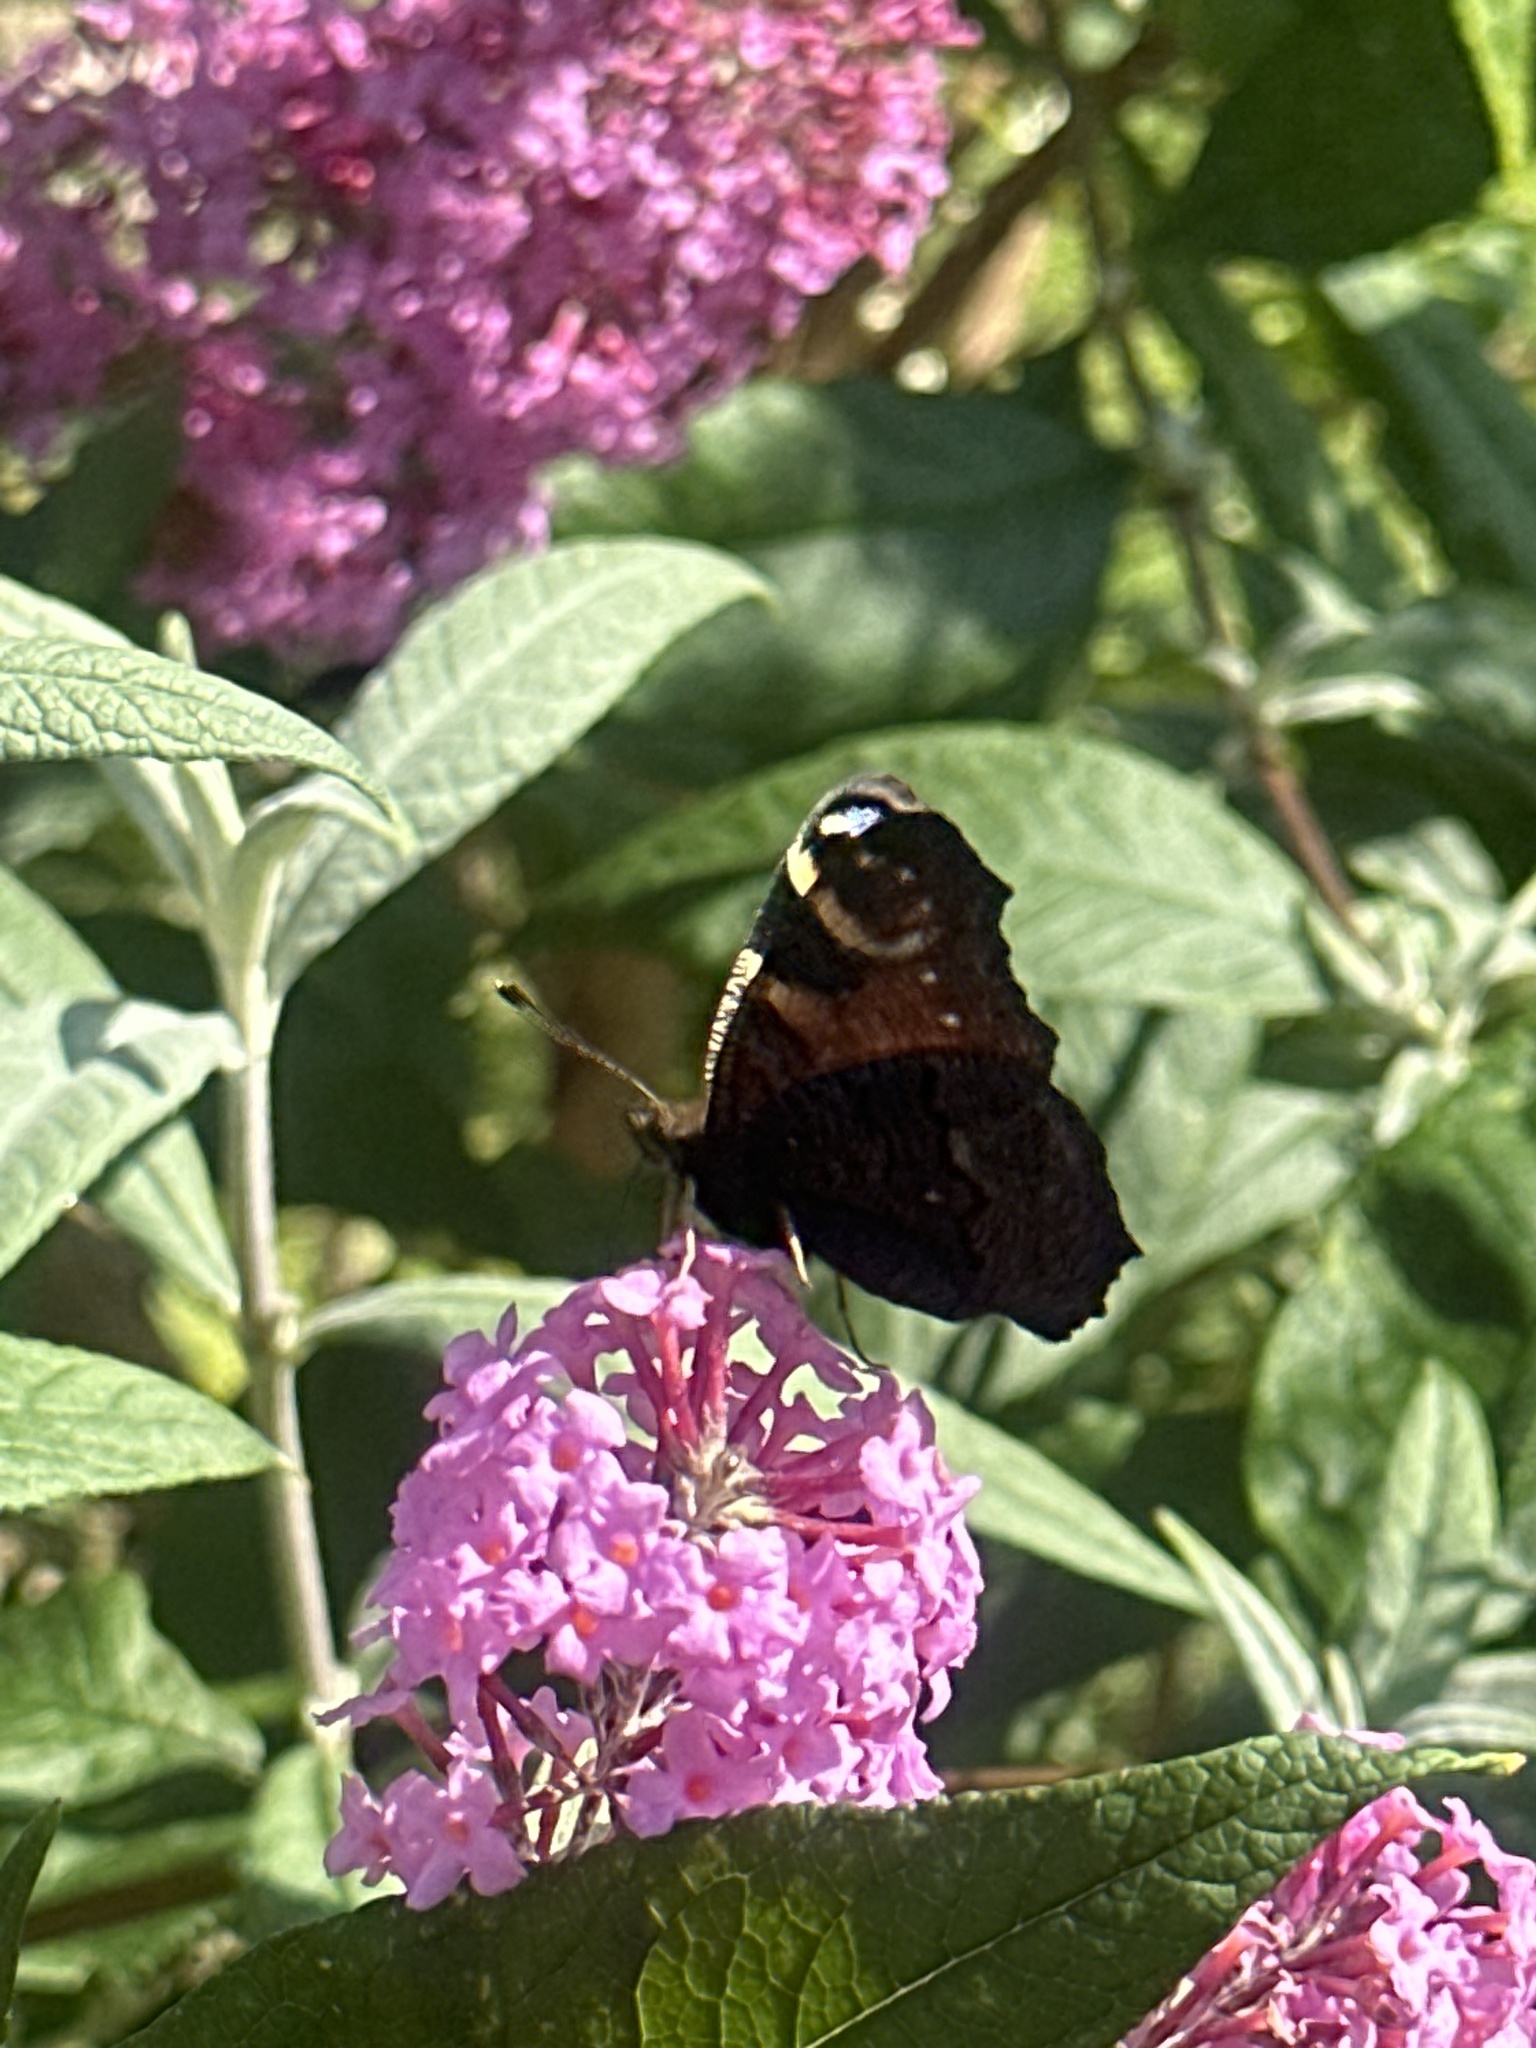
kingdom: Animalia
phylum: Arthropoda
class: Insecta
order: Lepidoptera
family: Nymphalidae
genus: Aglais
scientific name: Aglais io
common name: Peacock
